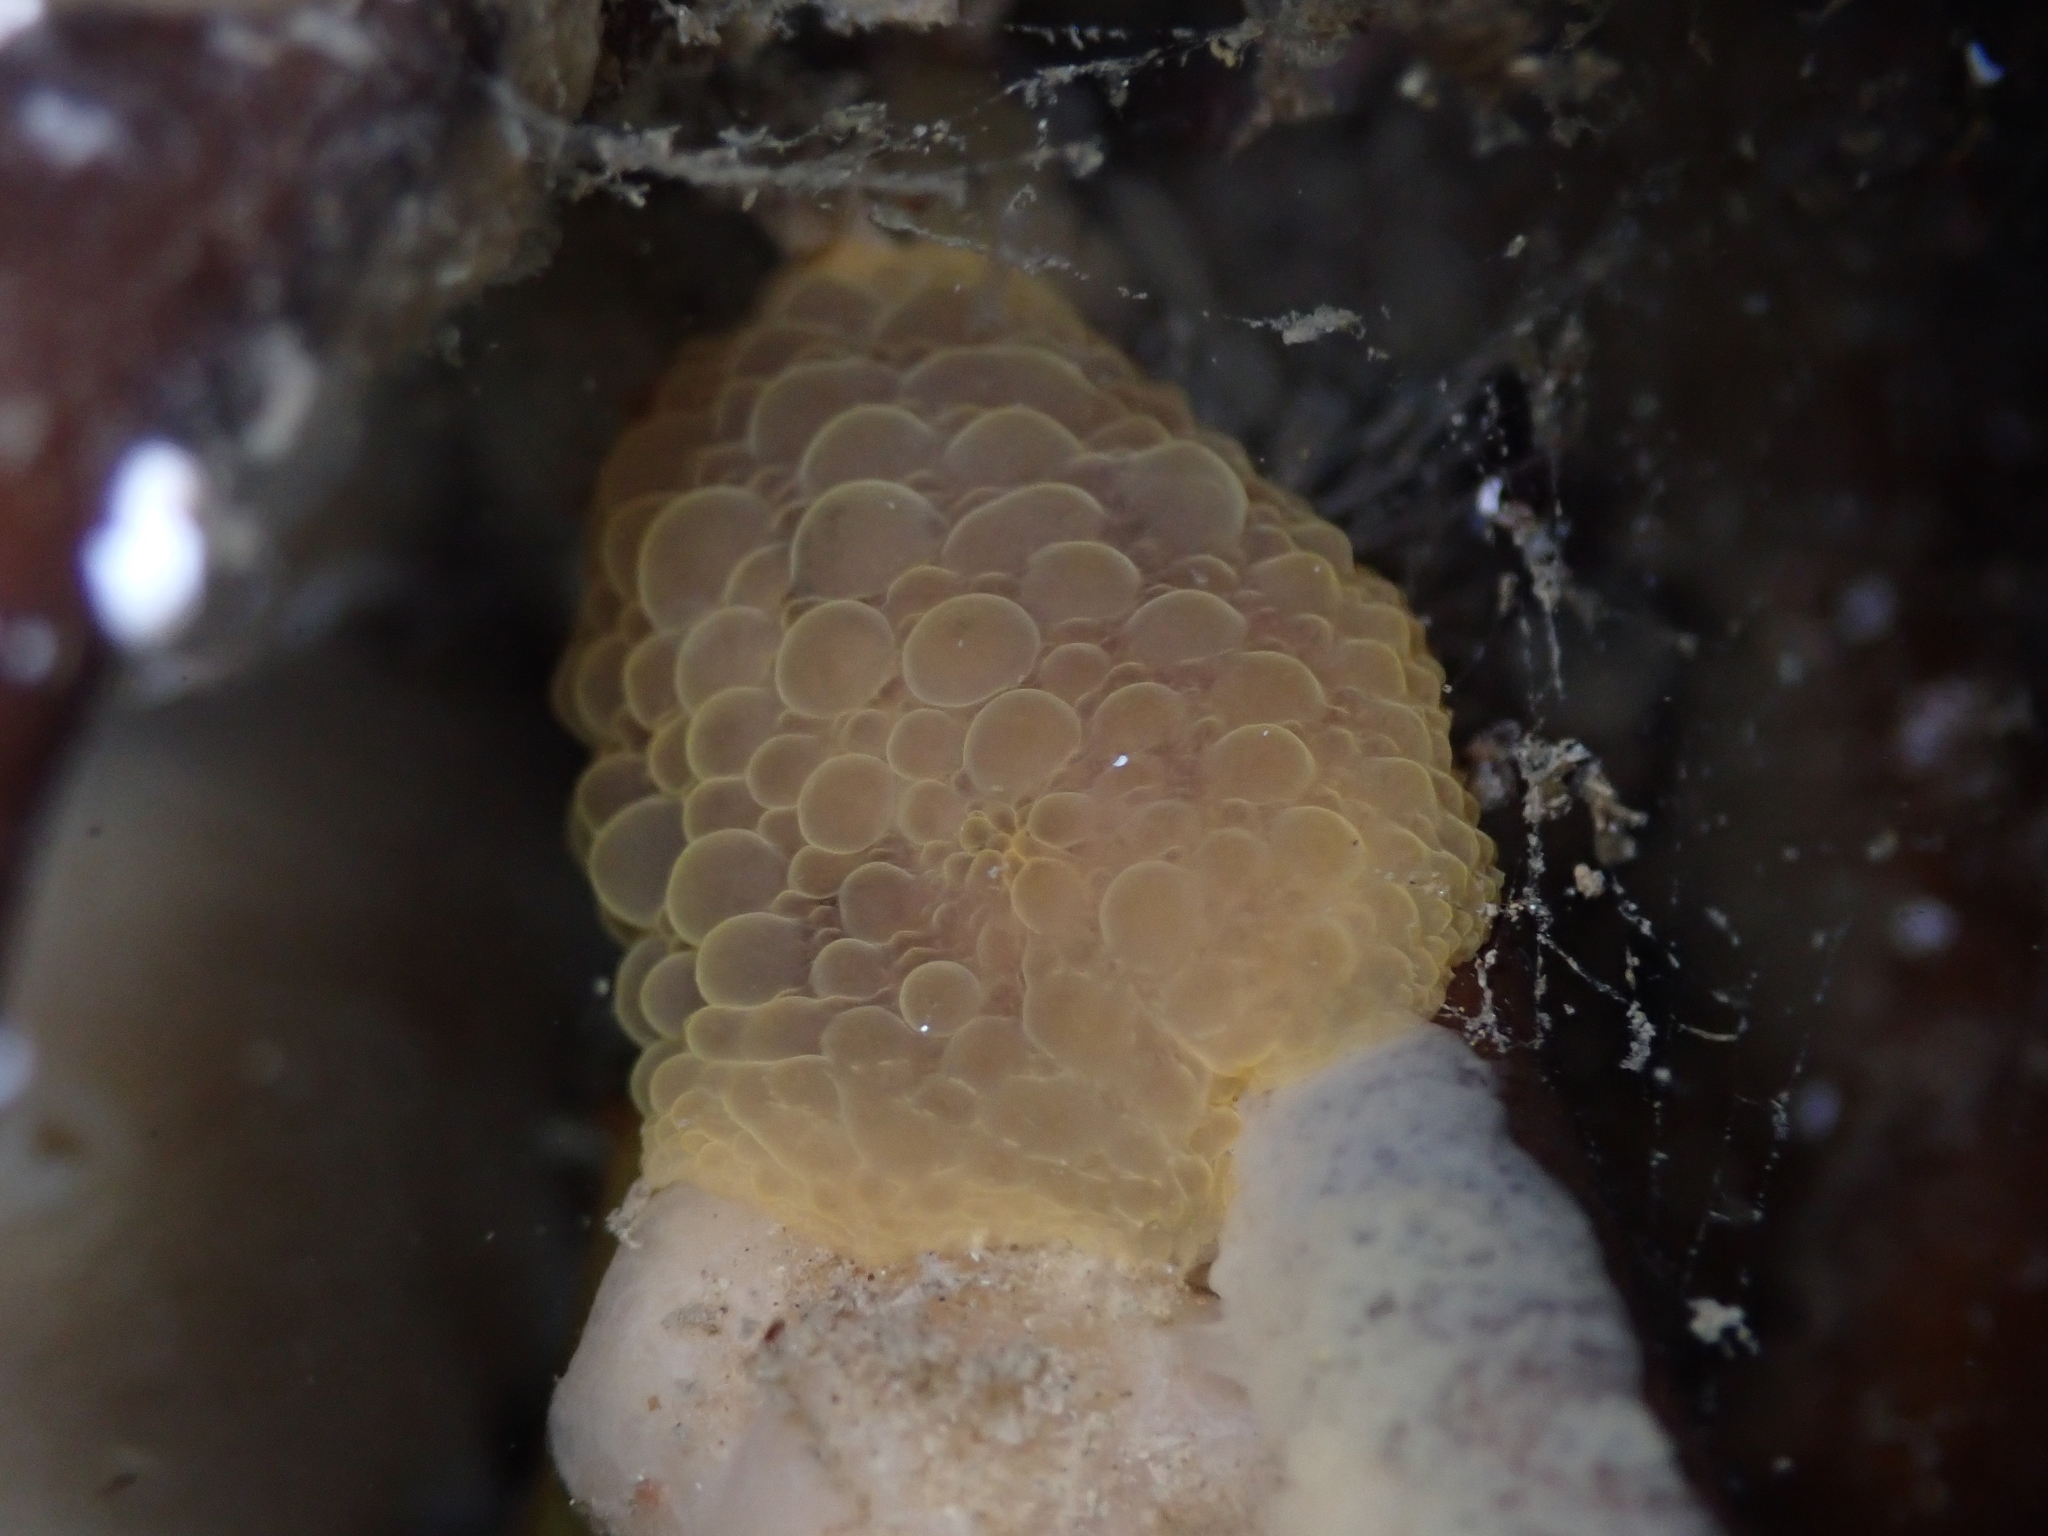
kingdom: Animalia
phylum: Mollusca
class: Gastropoda
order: Nudibranchia
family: Dorididae
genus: Doris
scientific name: Doris wellingtonensis
